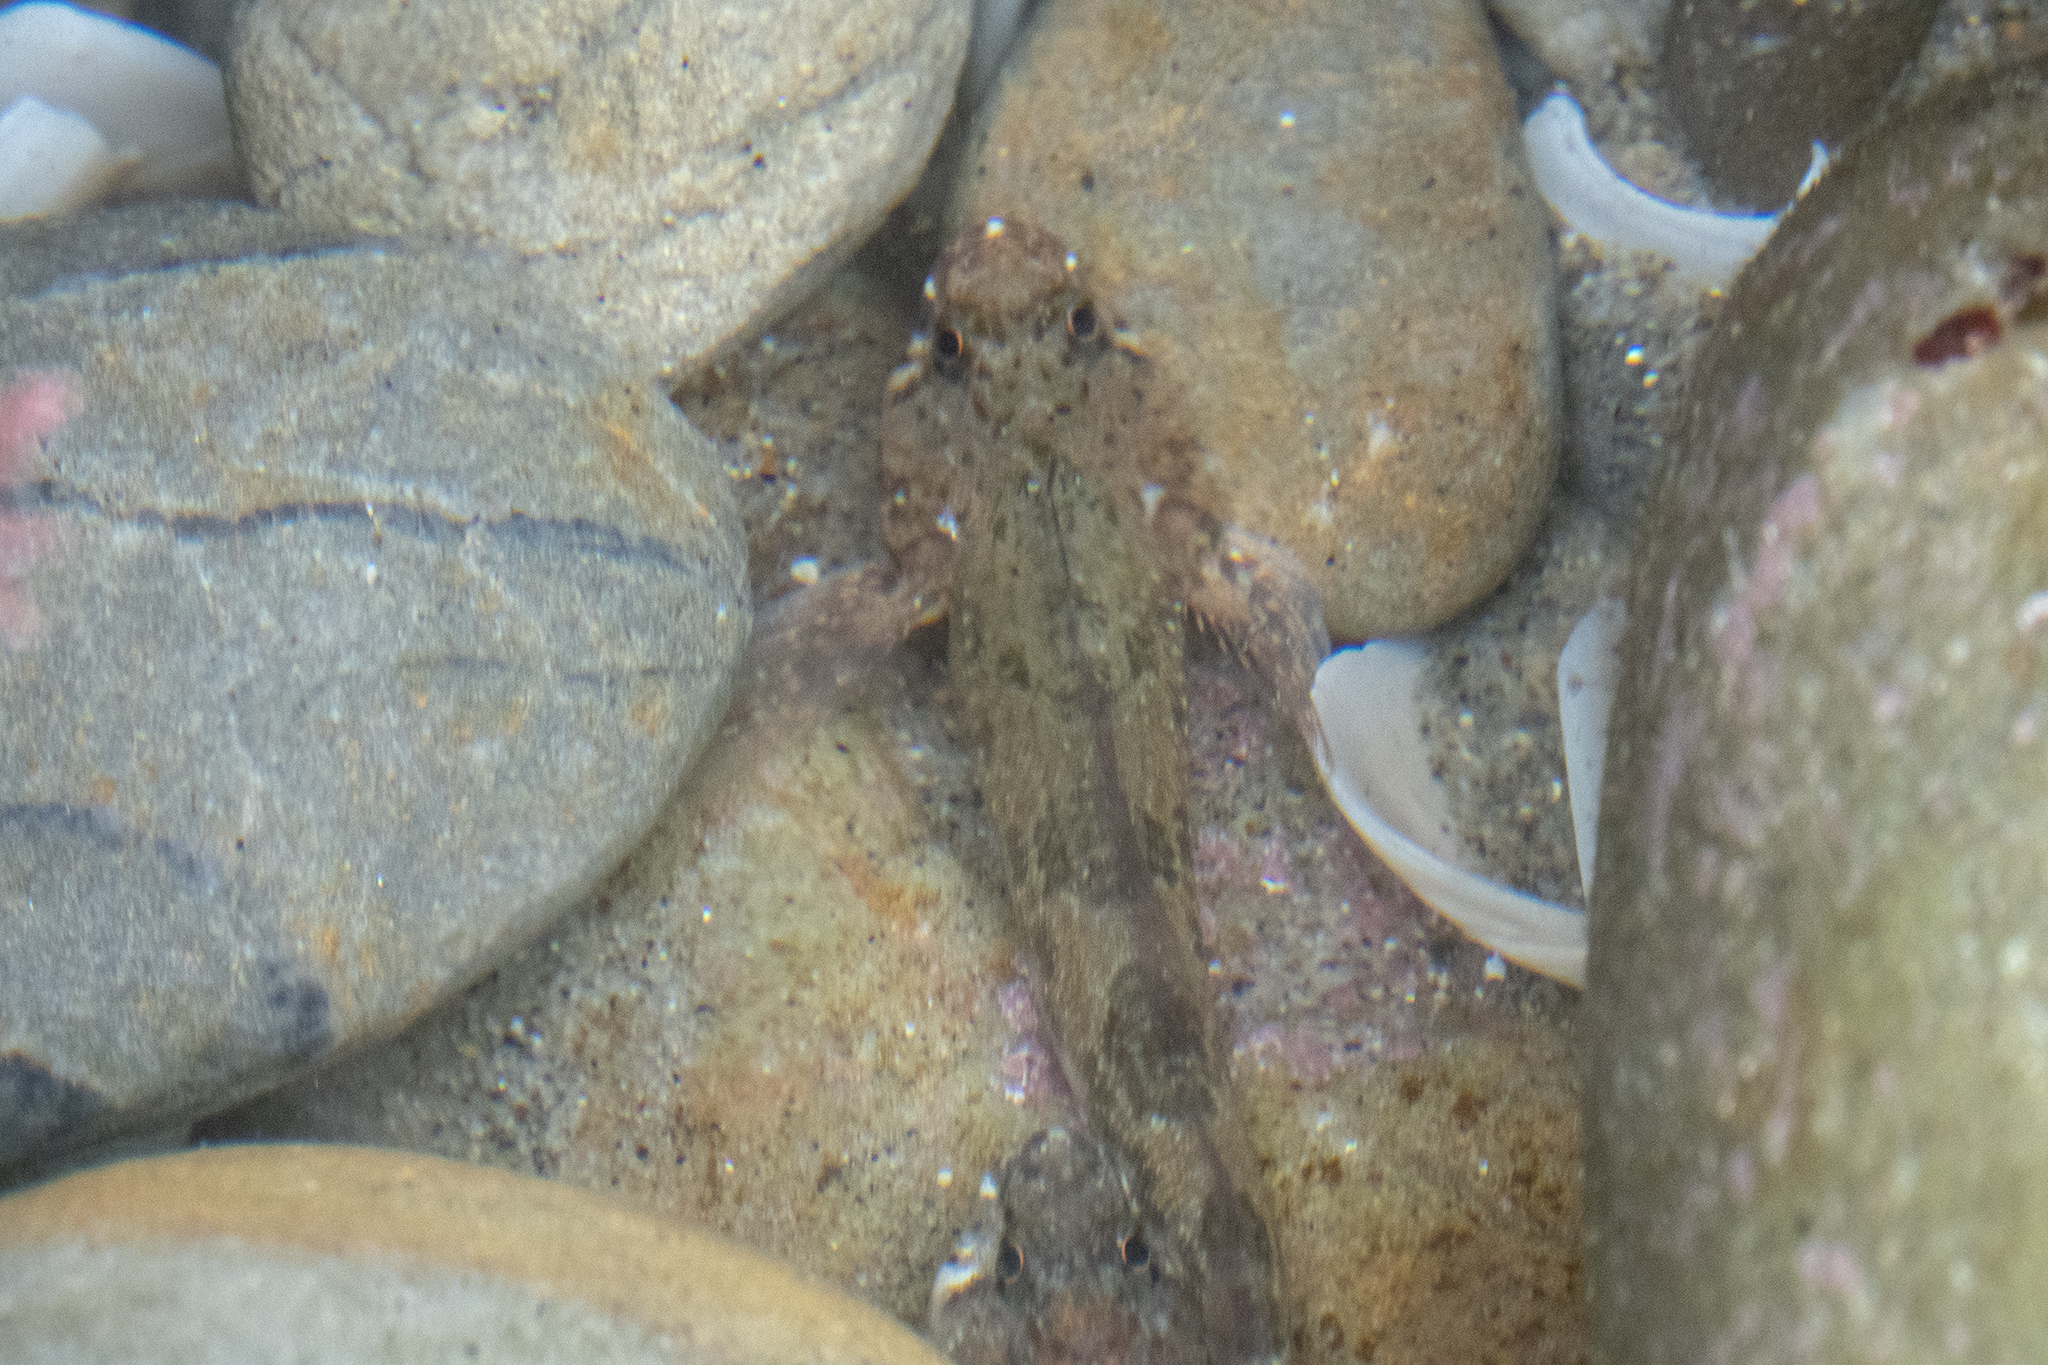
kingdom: Animalia
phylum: Chordata
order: Perciformes
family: Tripterygiidae
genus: Bellapiscis
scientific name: Bellapiscis medius
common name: Twister
